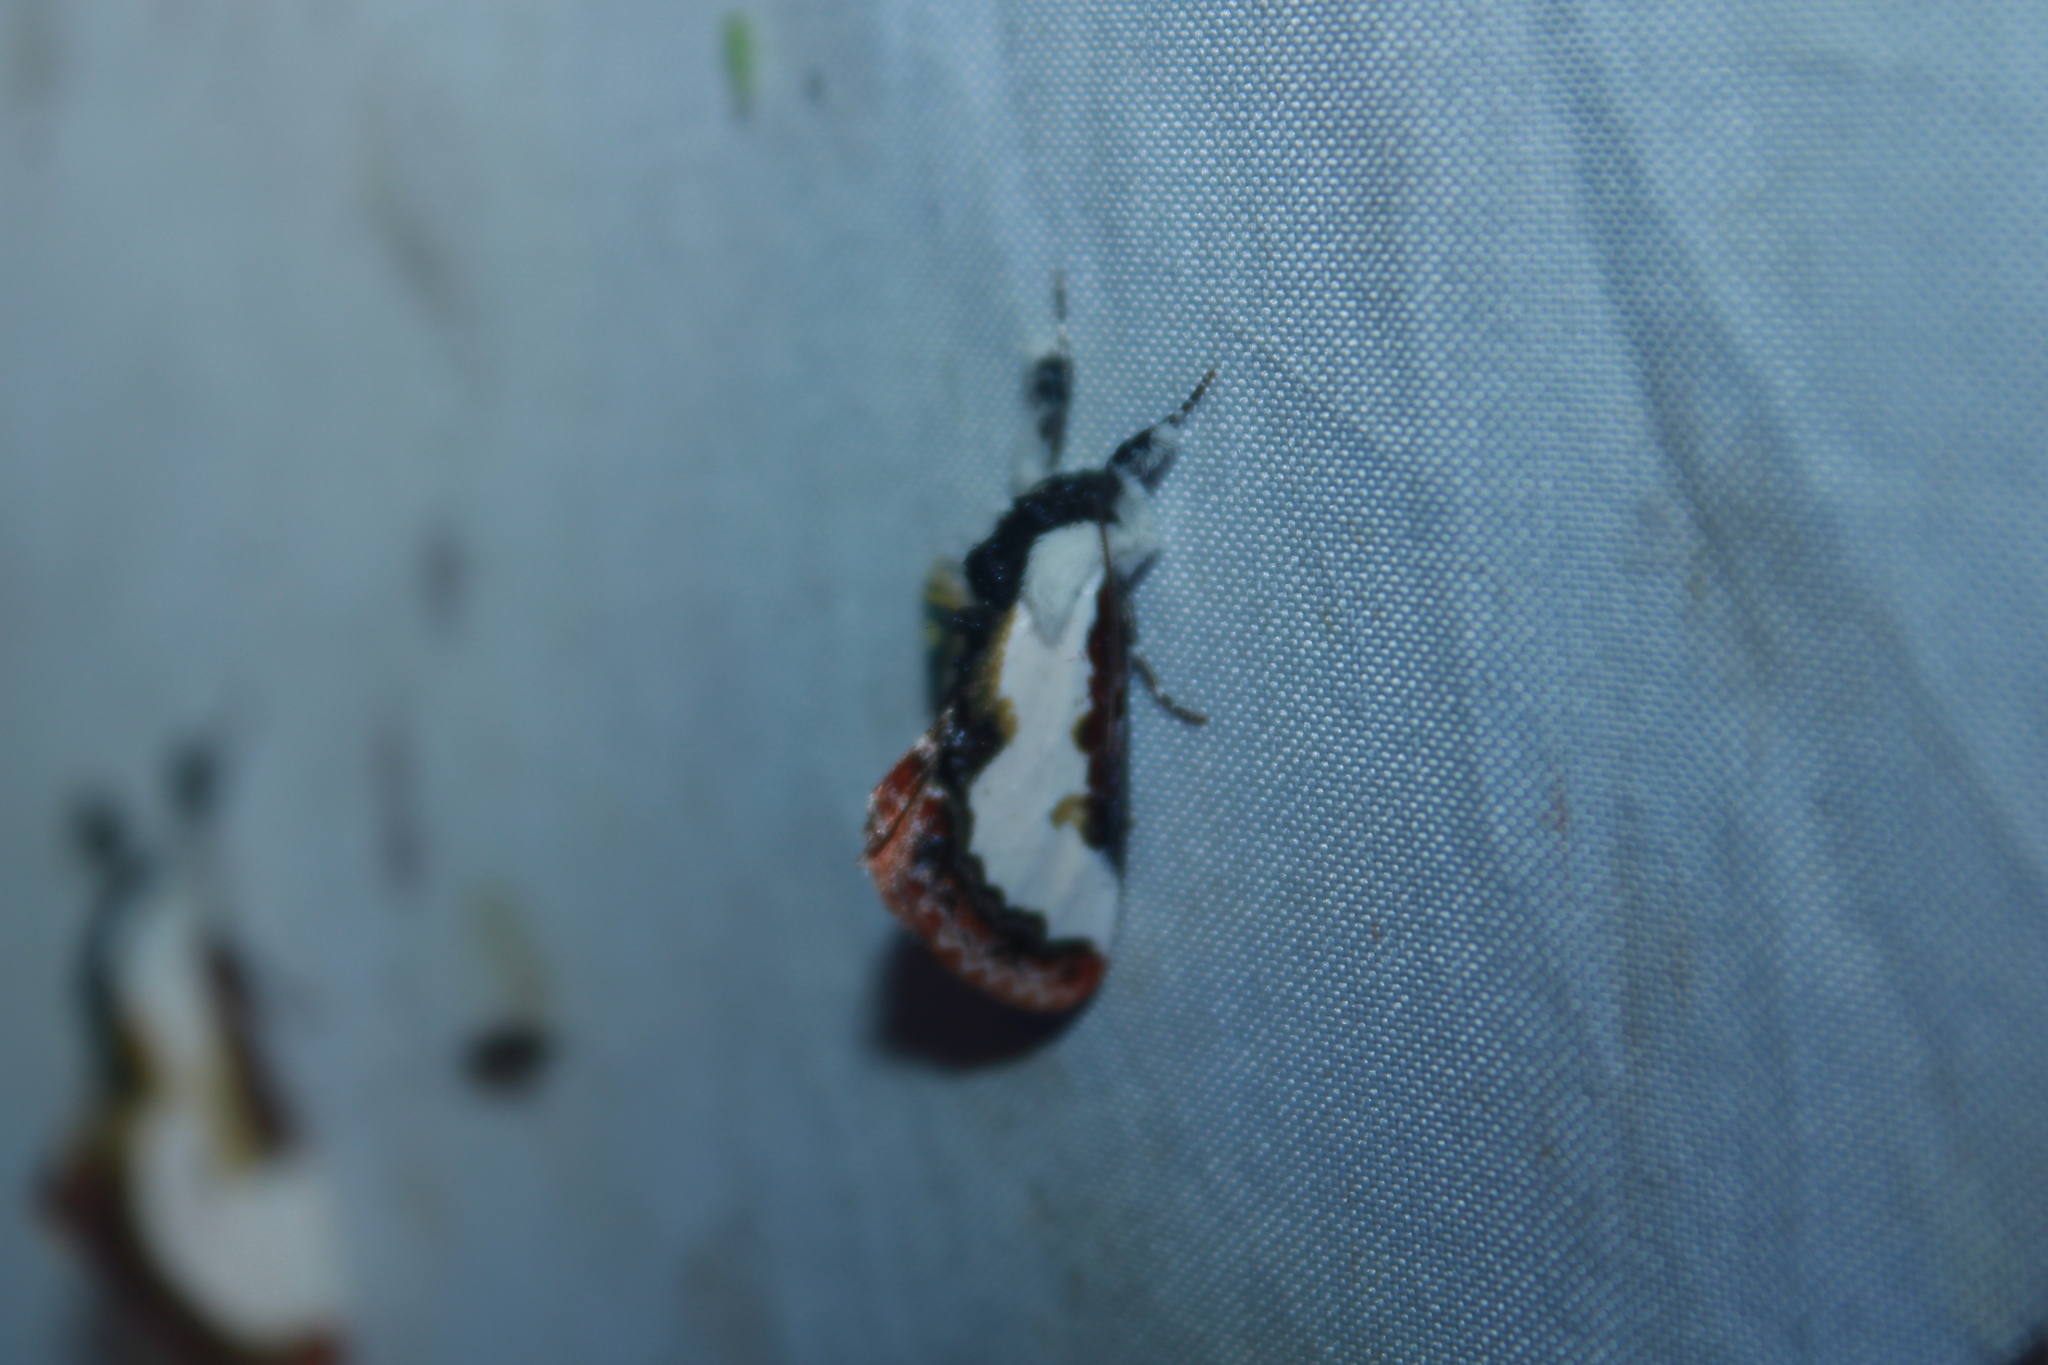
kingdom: Animalia
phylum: Arthropoda
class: Insecta
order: Lepidoptera
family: Noctuidae
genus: Eudryas
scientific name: Eudryas unio
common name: Pearly wood-nymph
